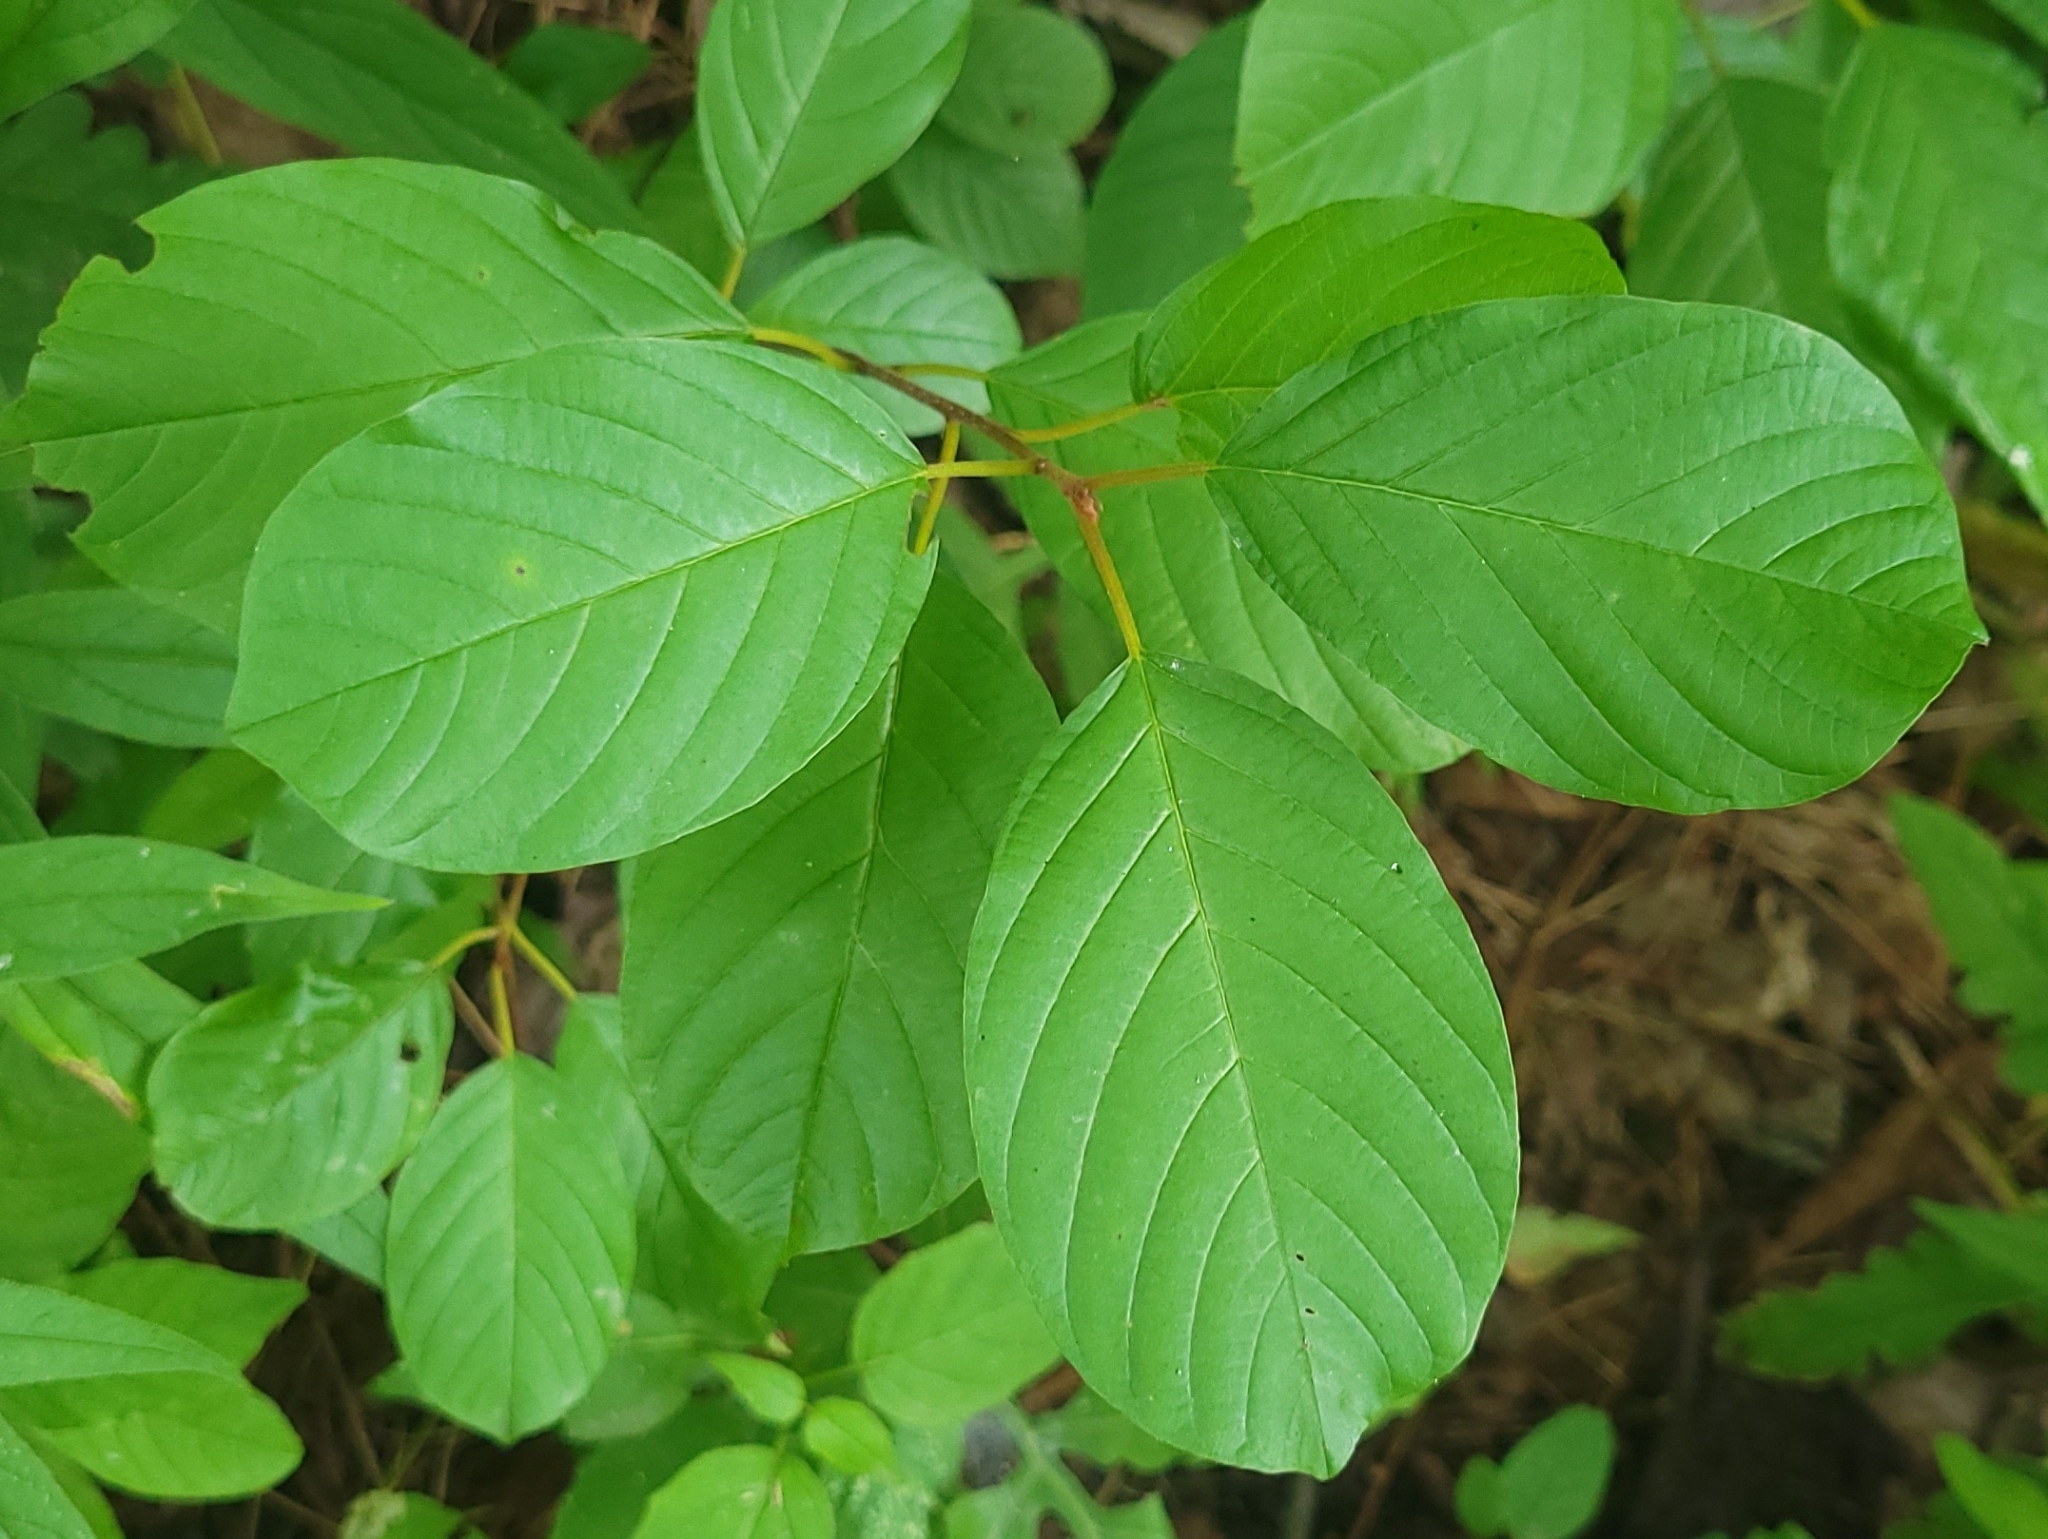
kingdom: Plantae
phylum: Tracheophyta
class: Magnoliopsida
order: Rosales
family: Rhamnaceae
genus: Frangula
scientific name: Frangula alnus
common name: Alder buckthorn
